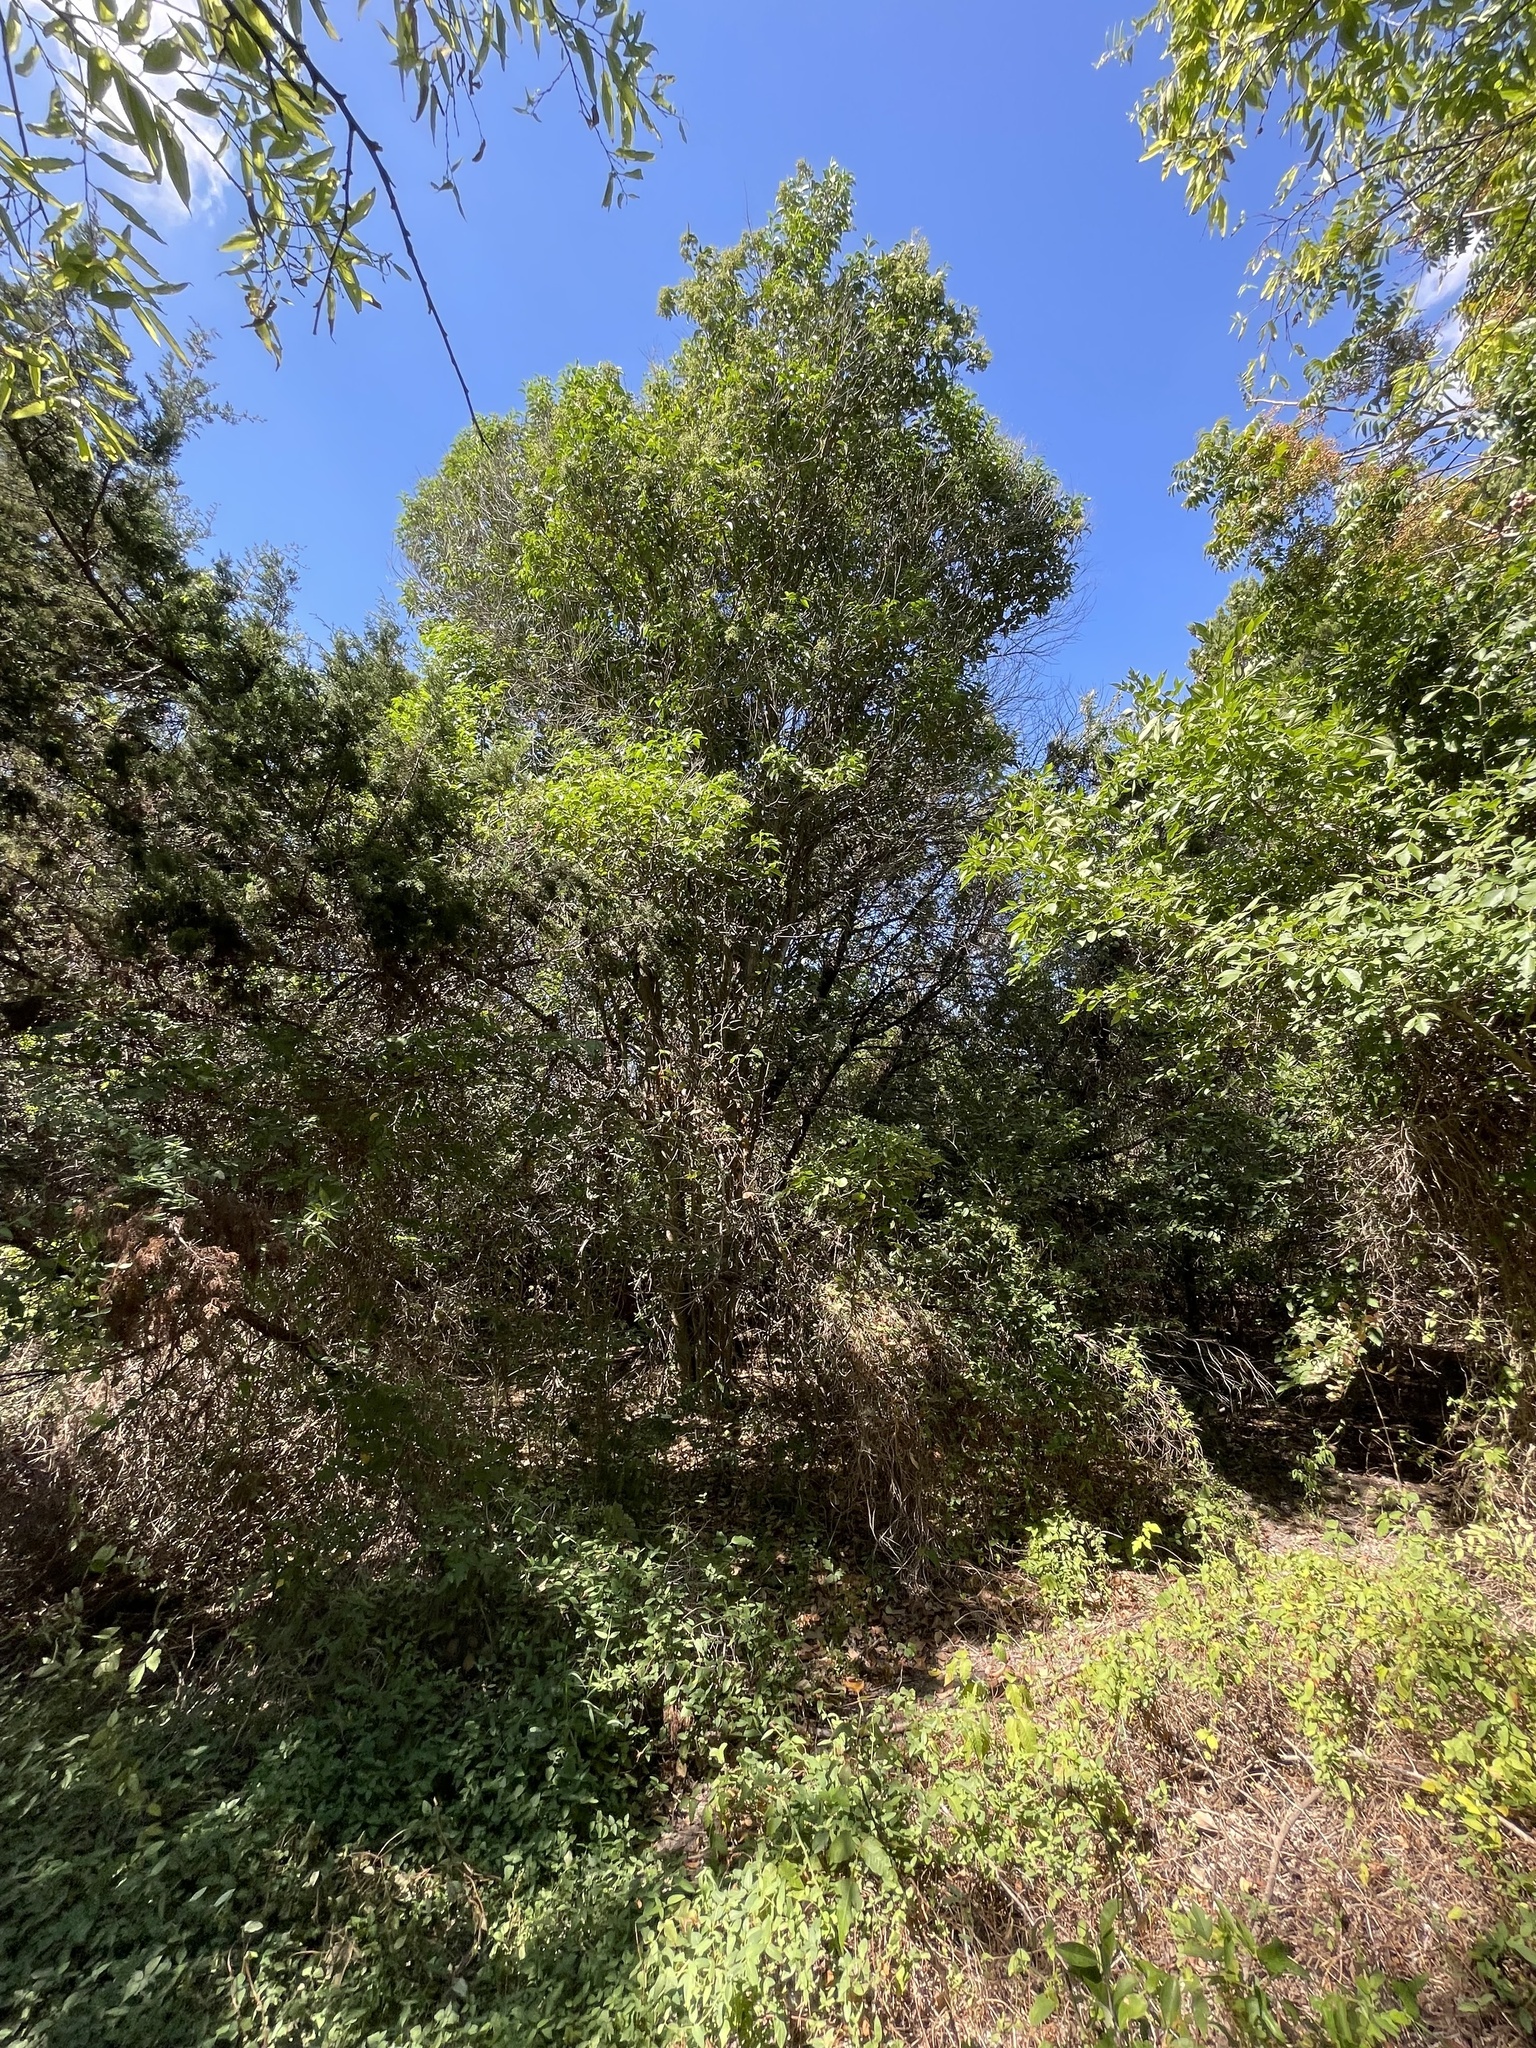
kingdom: Plantae
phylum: Tracheophyta
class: Magnoliopsida
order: Lamiales
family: Oleaceae
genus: Ligustrum
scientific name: Ligustrum lucidum
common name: Glossy privet
